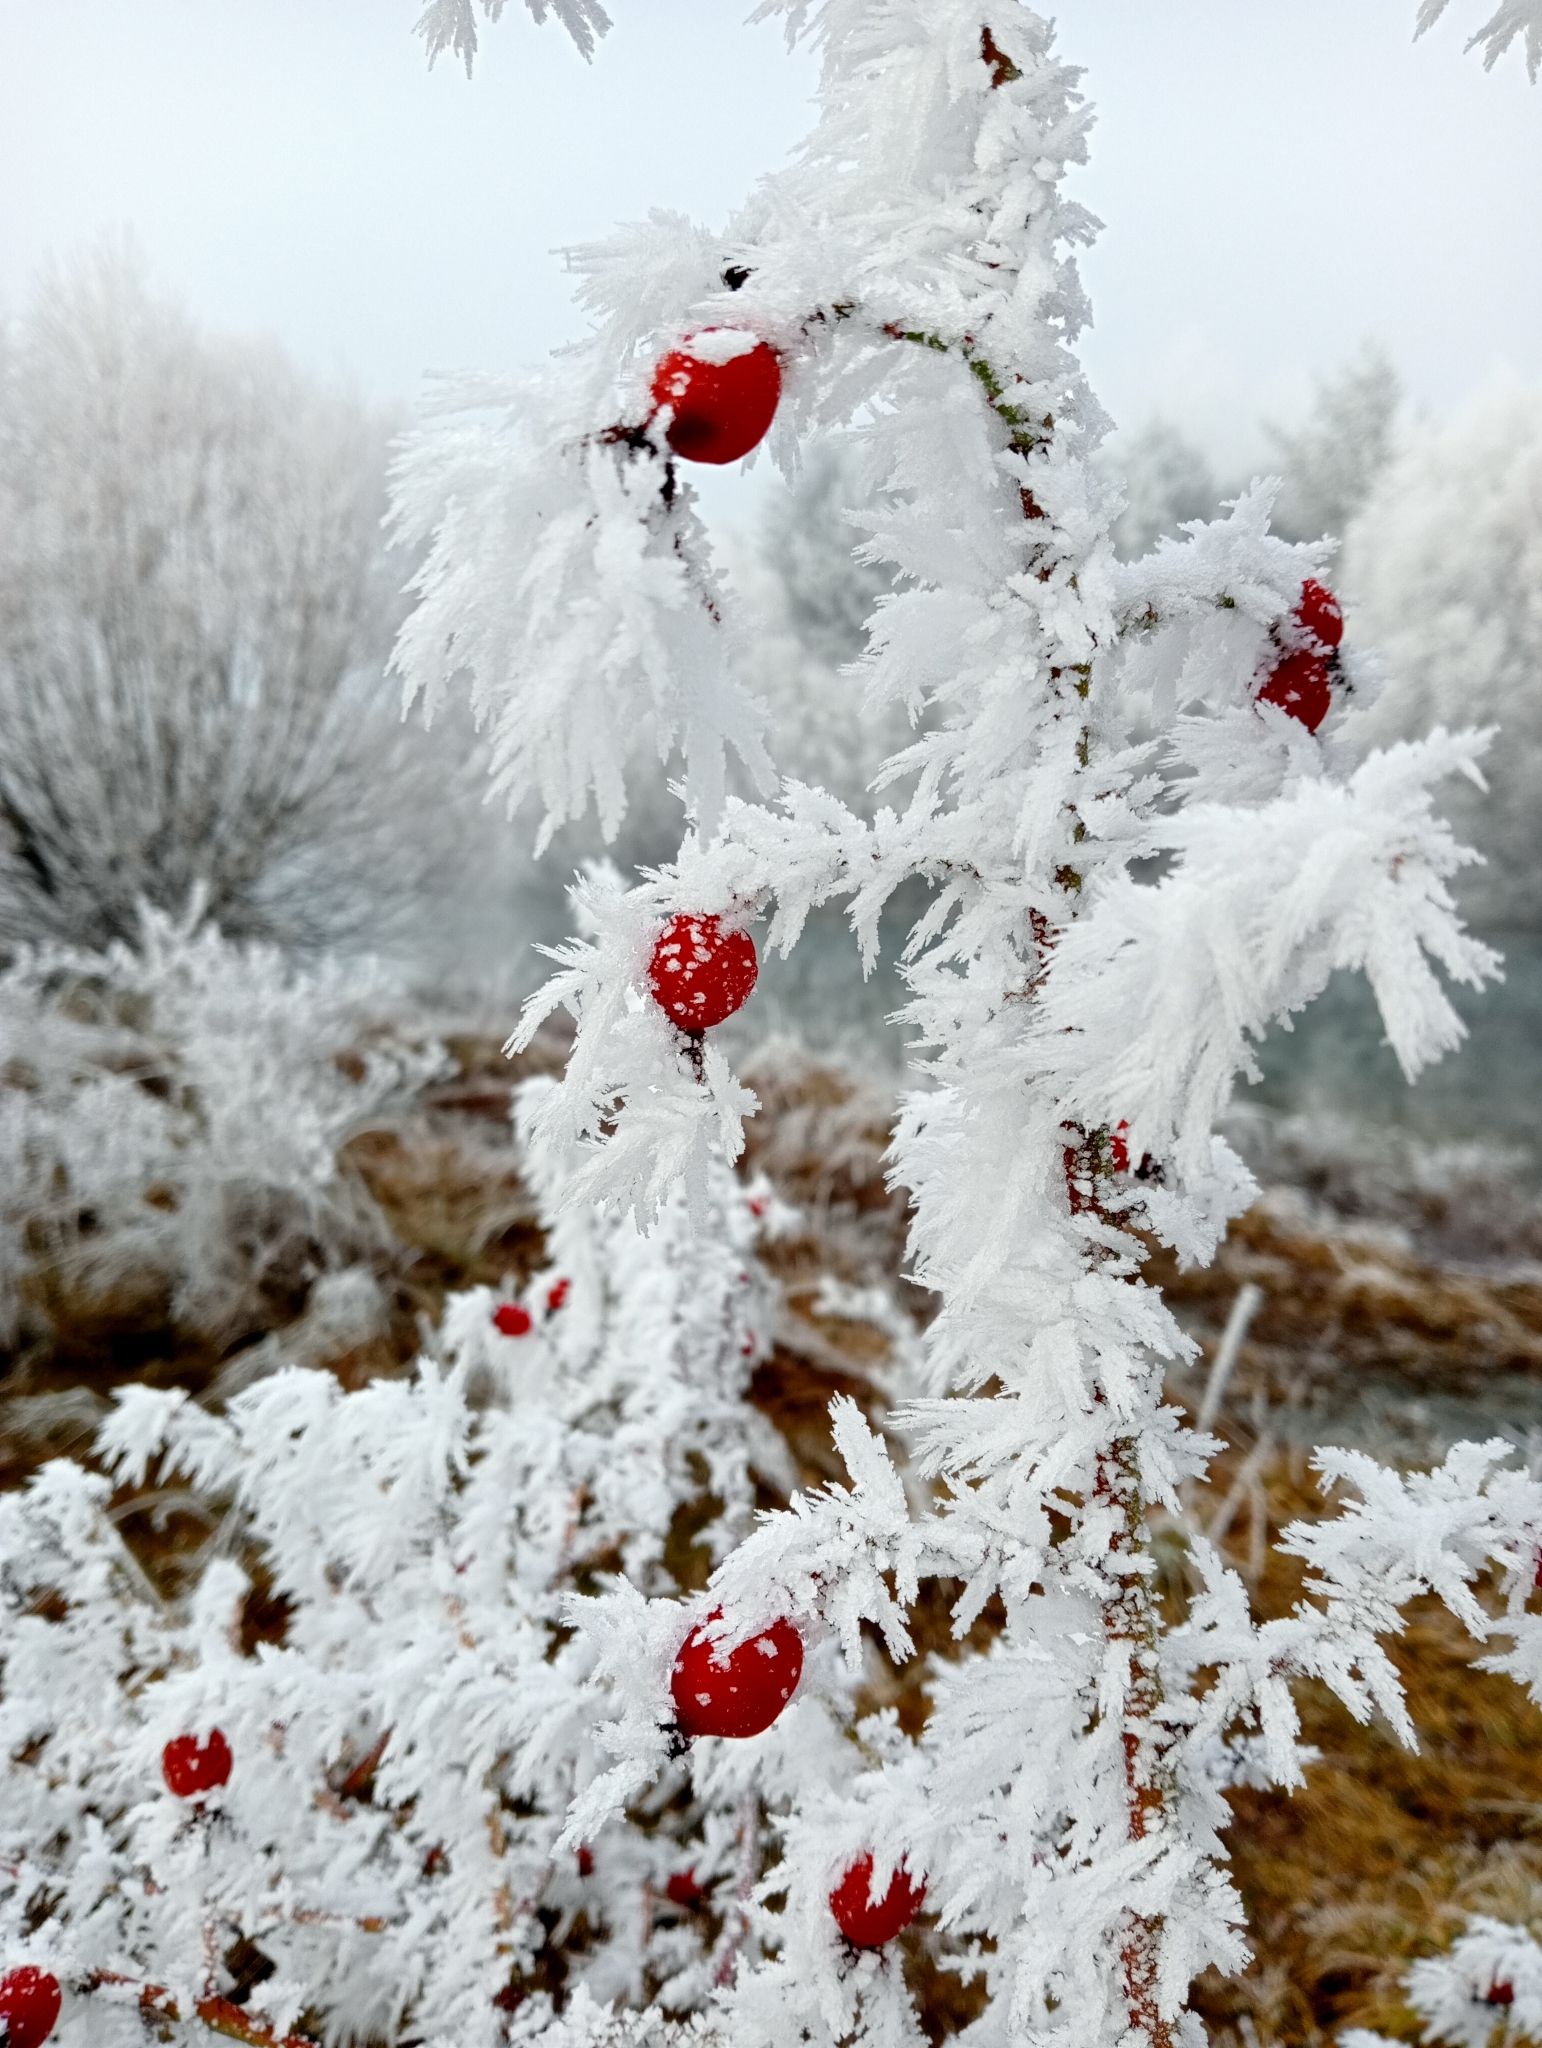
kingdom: Plantae
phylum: Tracheophyta
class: Magnoliopsida
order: Rosales
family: Rosaceae
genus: Rosa
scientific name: Rosa rubiginosa
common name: Sweet-briar
